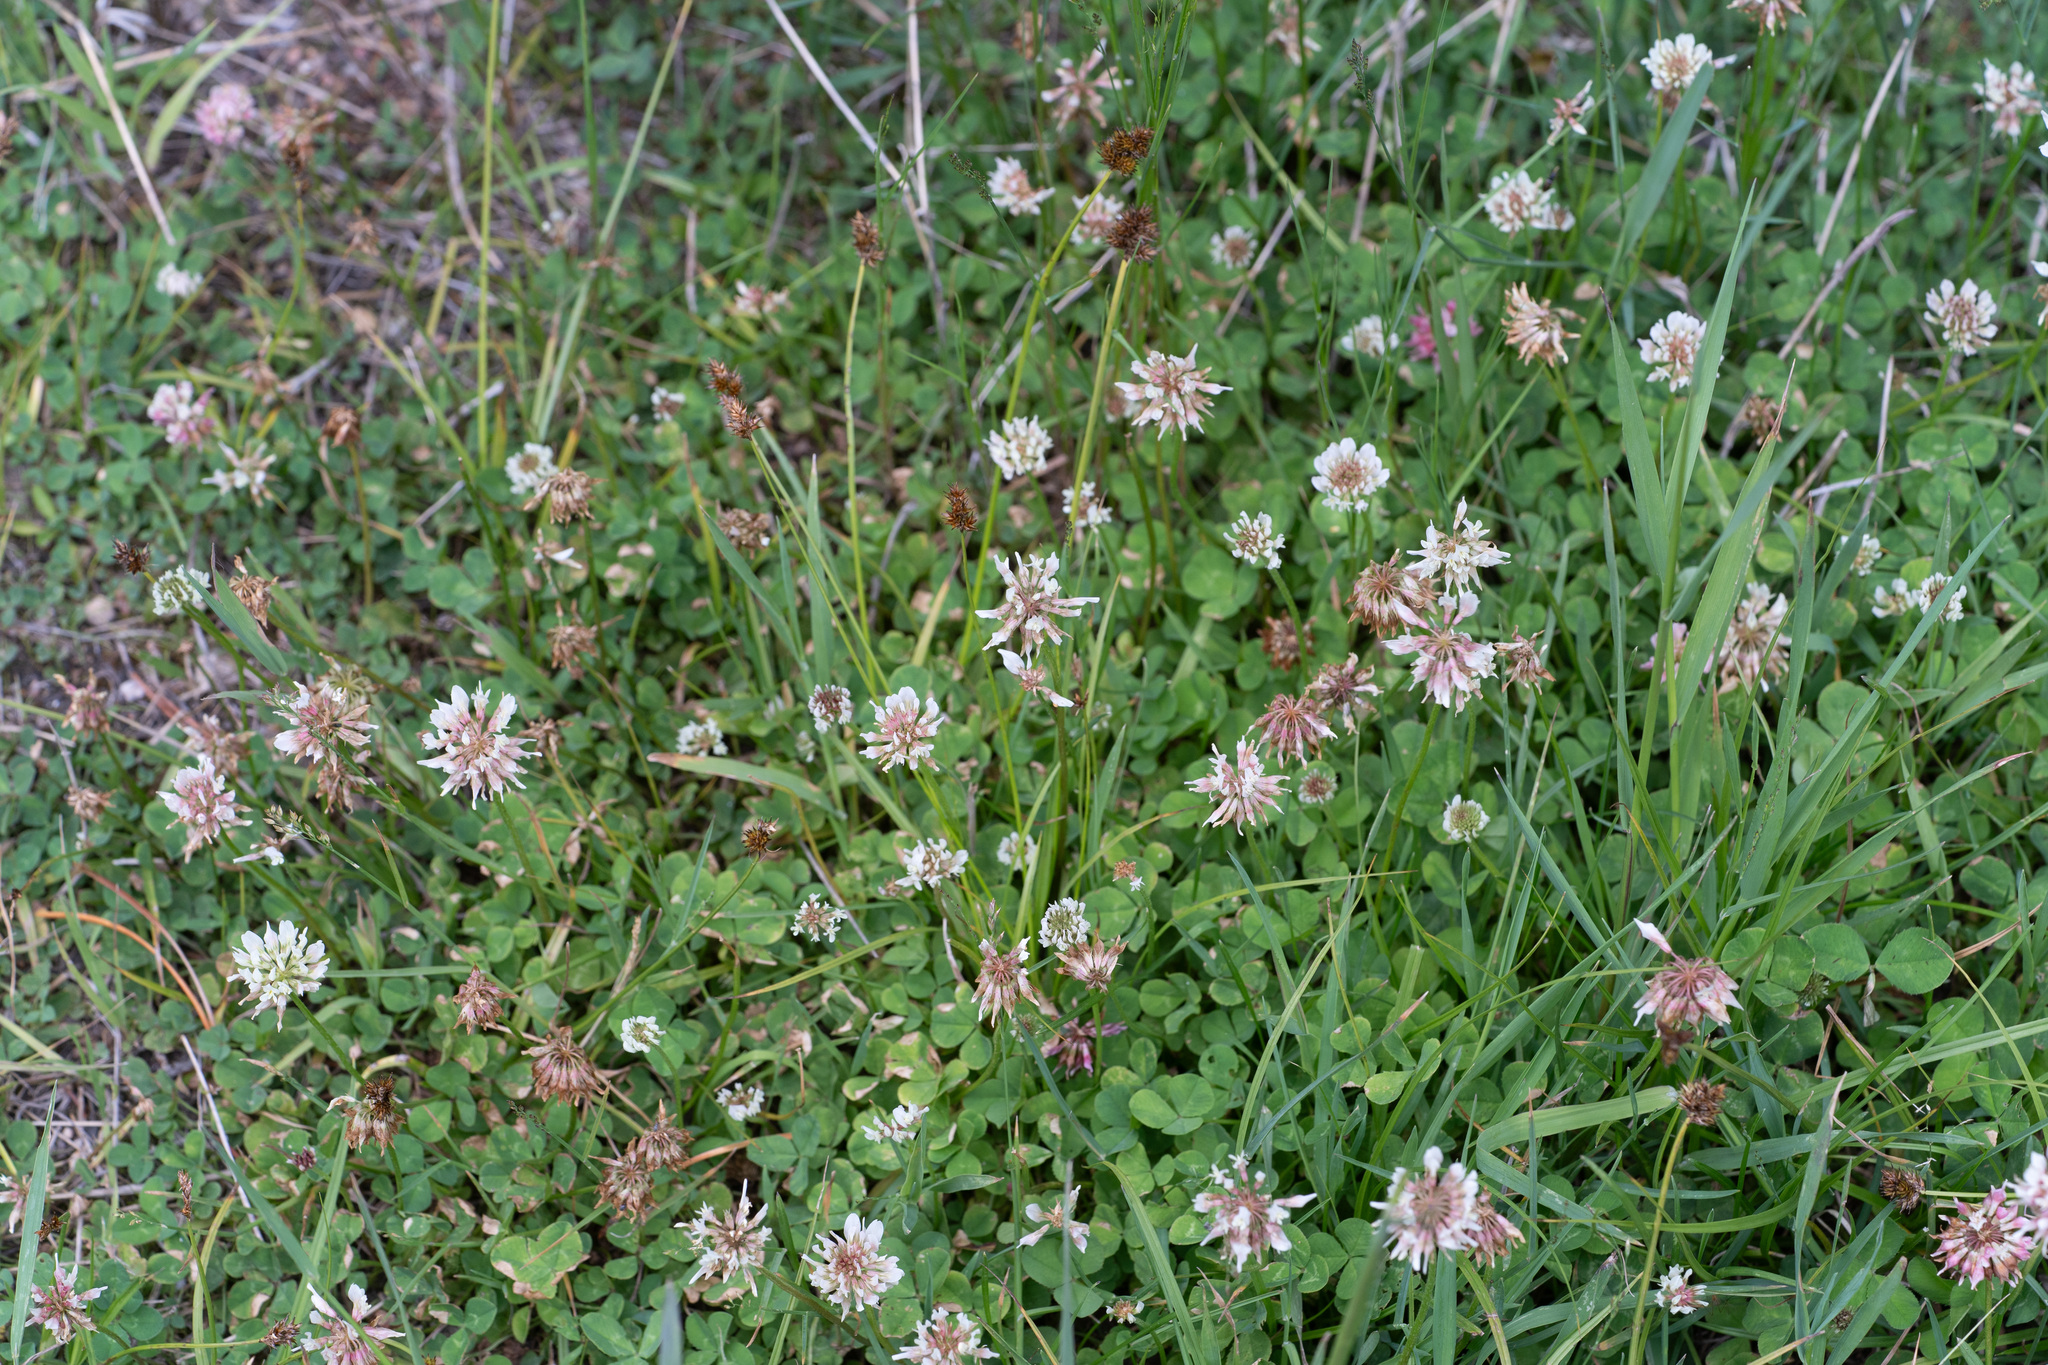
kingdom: Plantae
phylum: Tracheophyta
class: Magnoliopsida
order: Fabales
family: Fabaceae
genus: Trifolium
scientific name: Trifolium repens
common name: White clover
